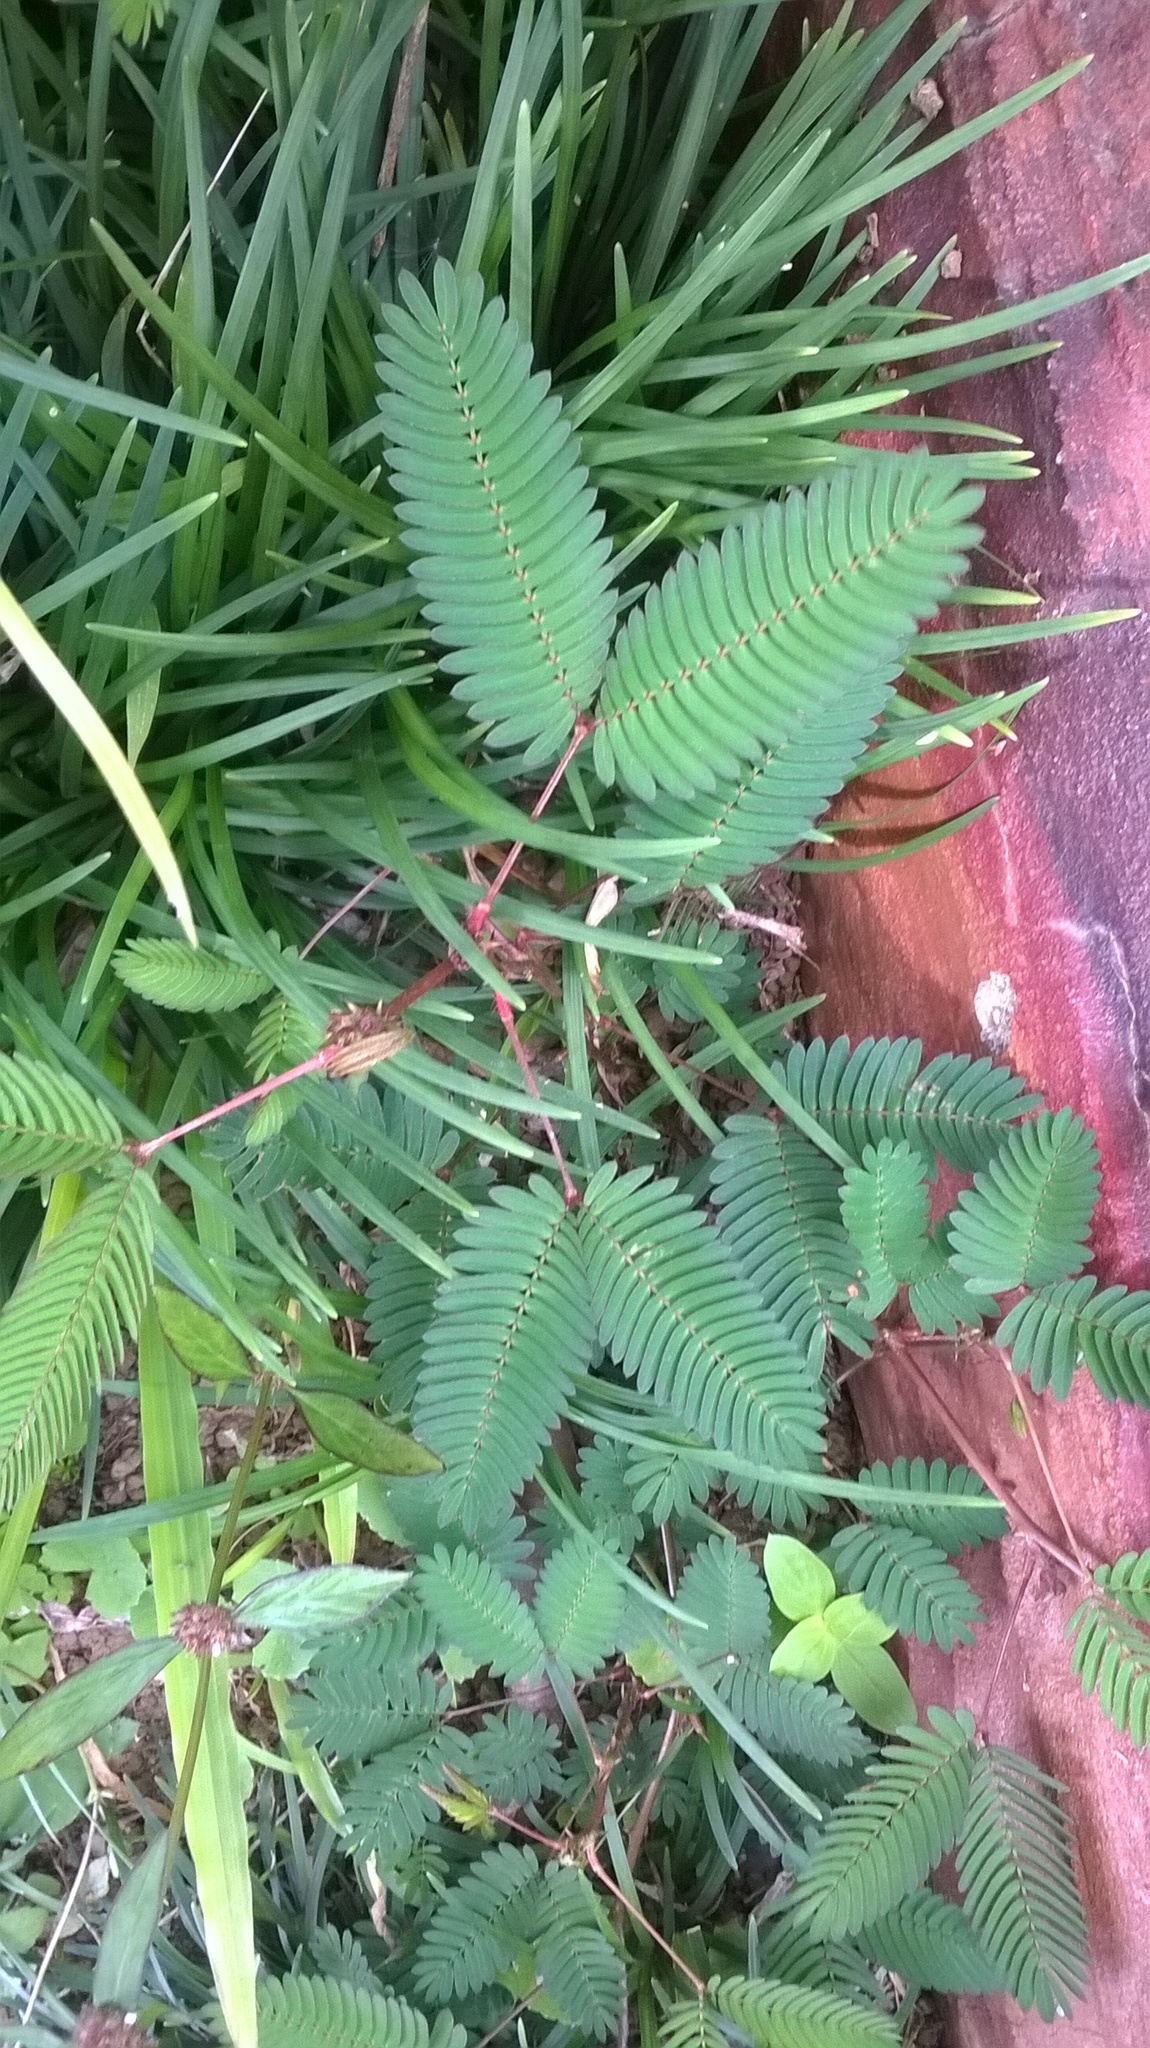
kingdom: Plantae
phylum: Tracheophyta
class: Magnoliopsida
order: Fabales
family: Fabaceae
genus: Mimosa
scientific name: Mimosa pudica
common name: Sensitive plant
